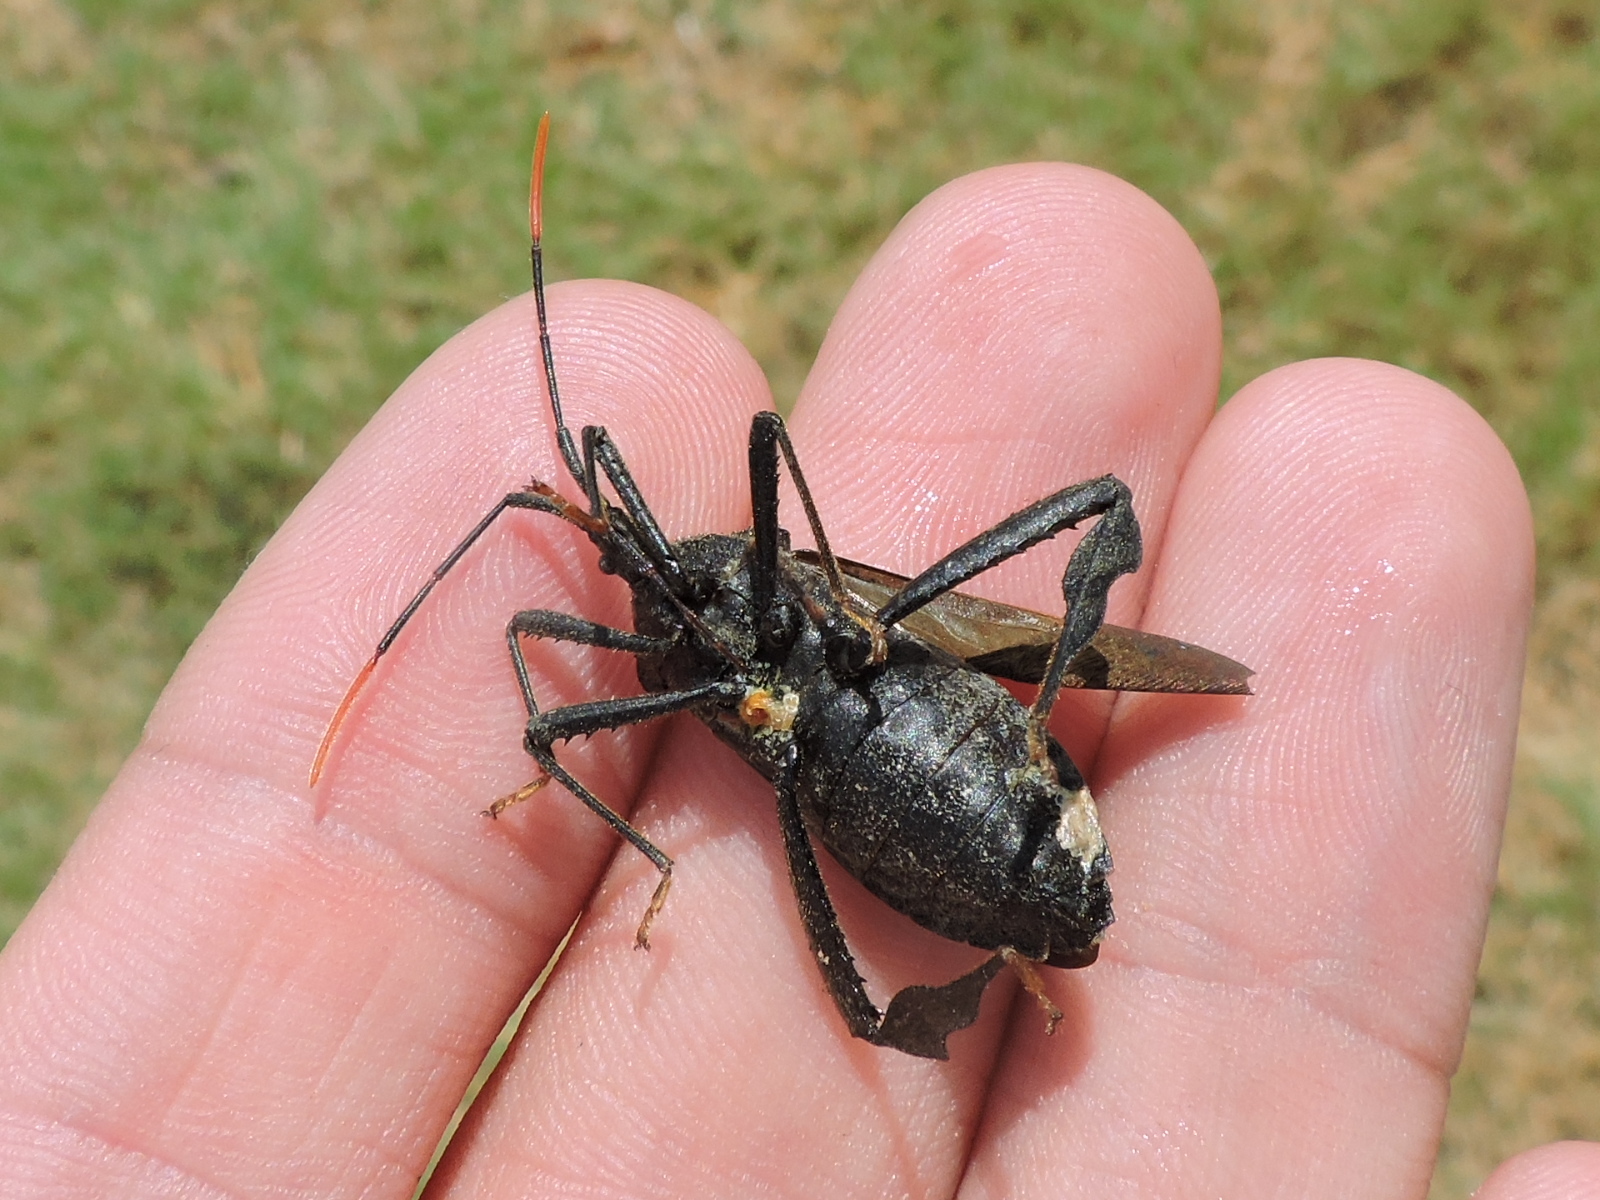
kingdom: Animalia
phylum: Arthropoda
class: Insecta
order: Hemiptera
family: Coreidae
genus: Acanthocephala
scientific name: Acanthocephala terminalis
